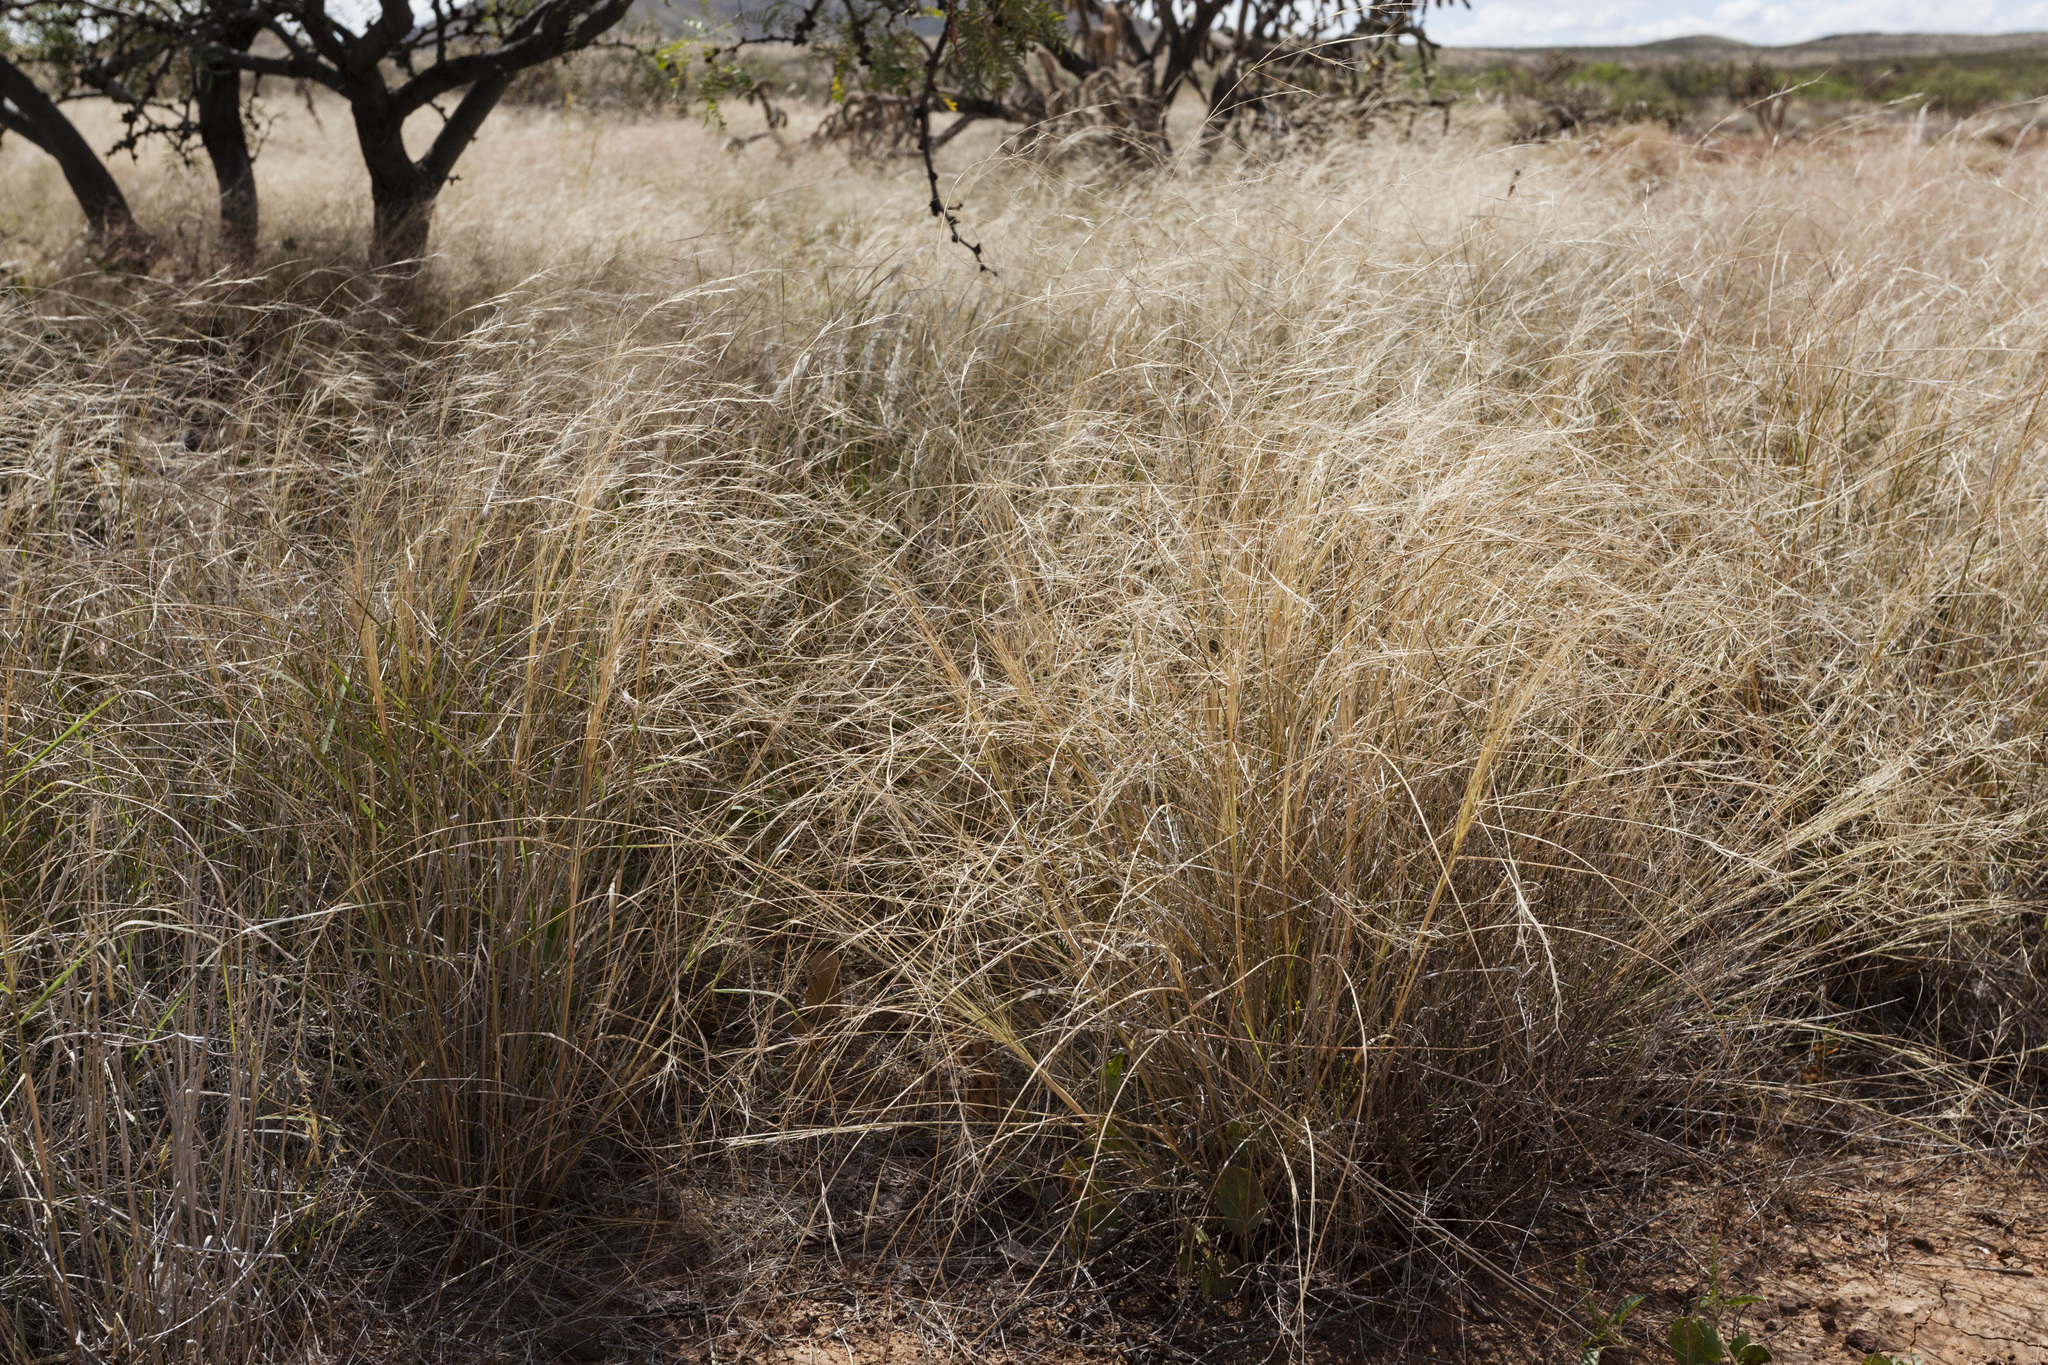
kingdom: Plantae
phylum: Tracheophyta
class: Liliopsida
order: Poales
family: Poaceae
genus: Aristida
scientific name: Aristida hamulosa
